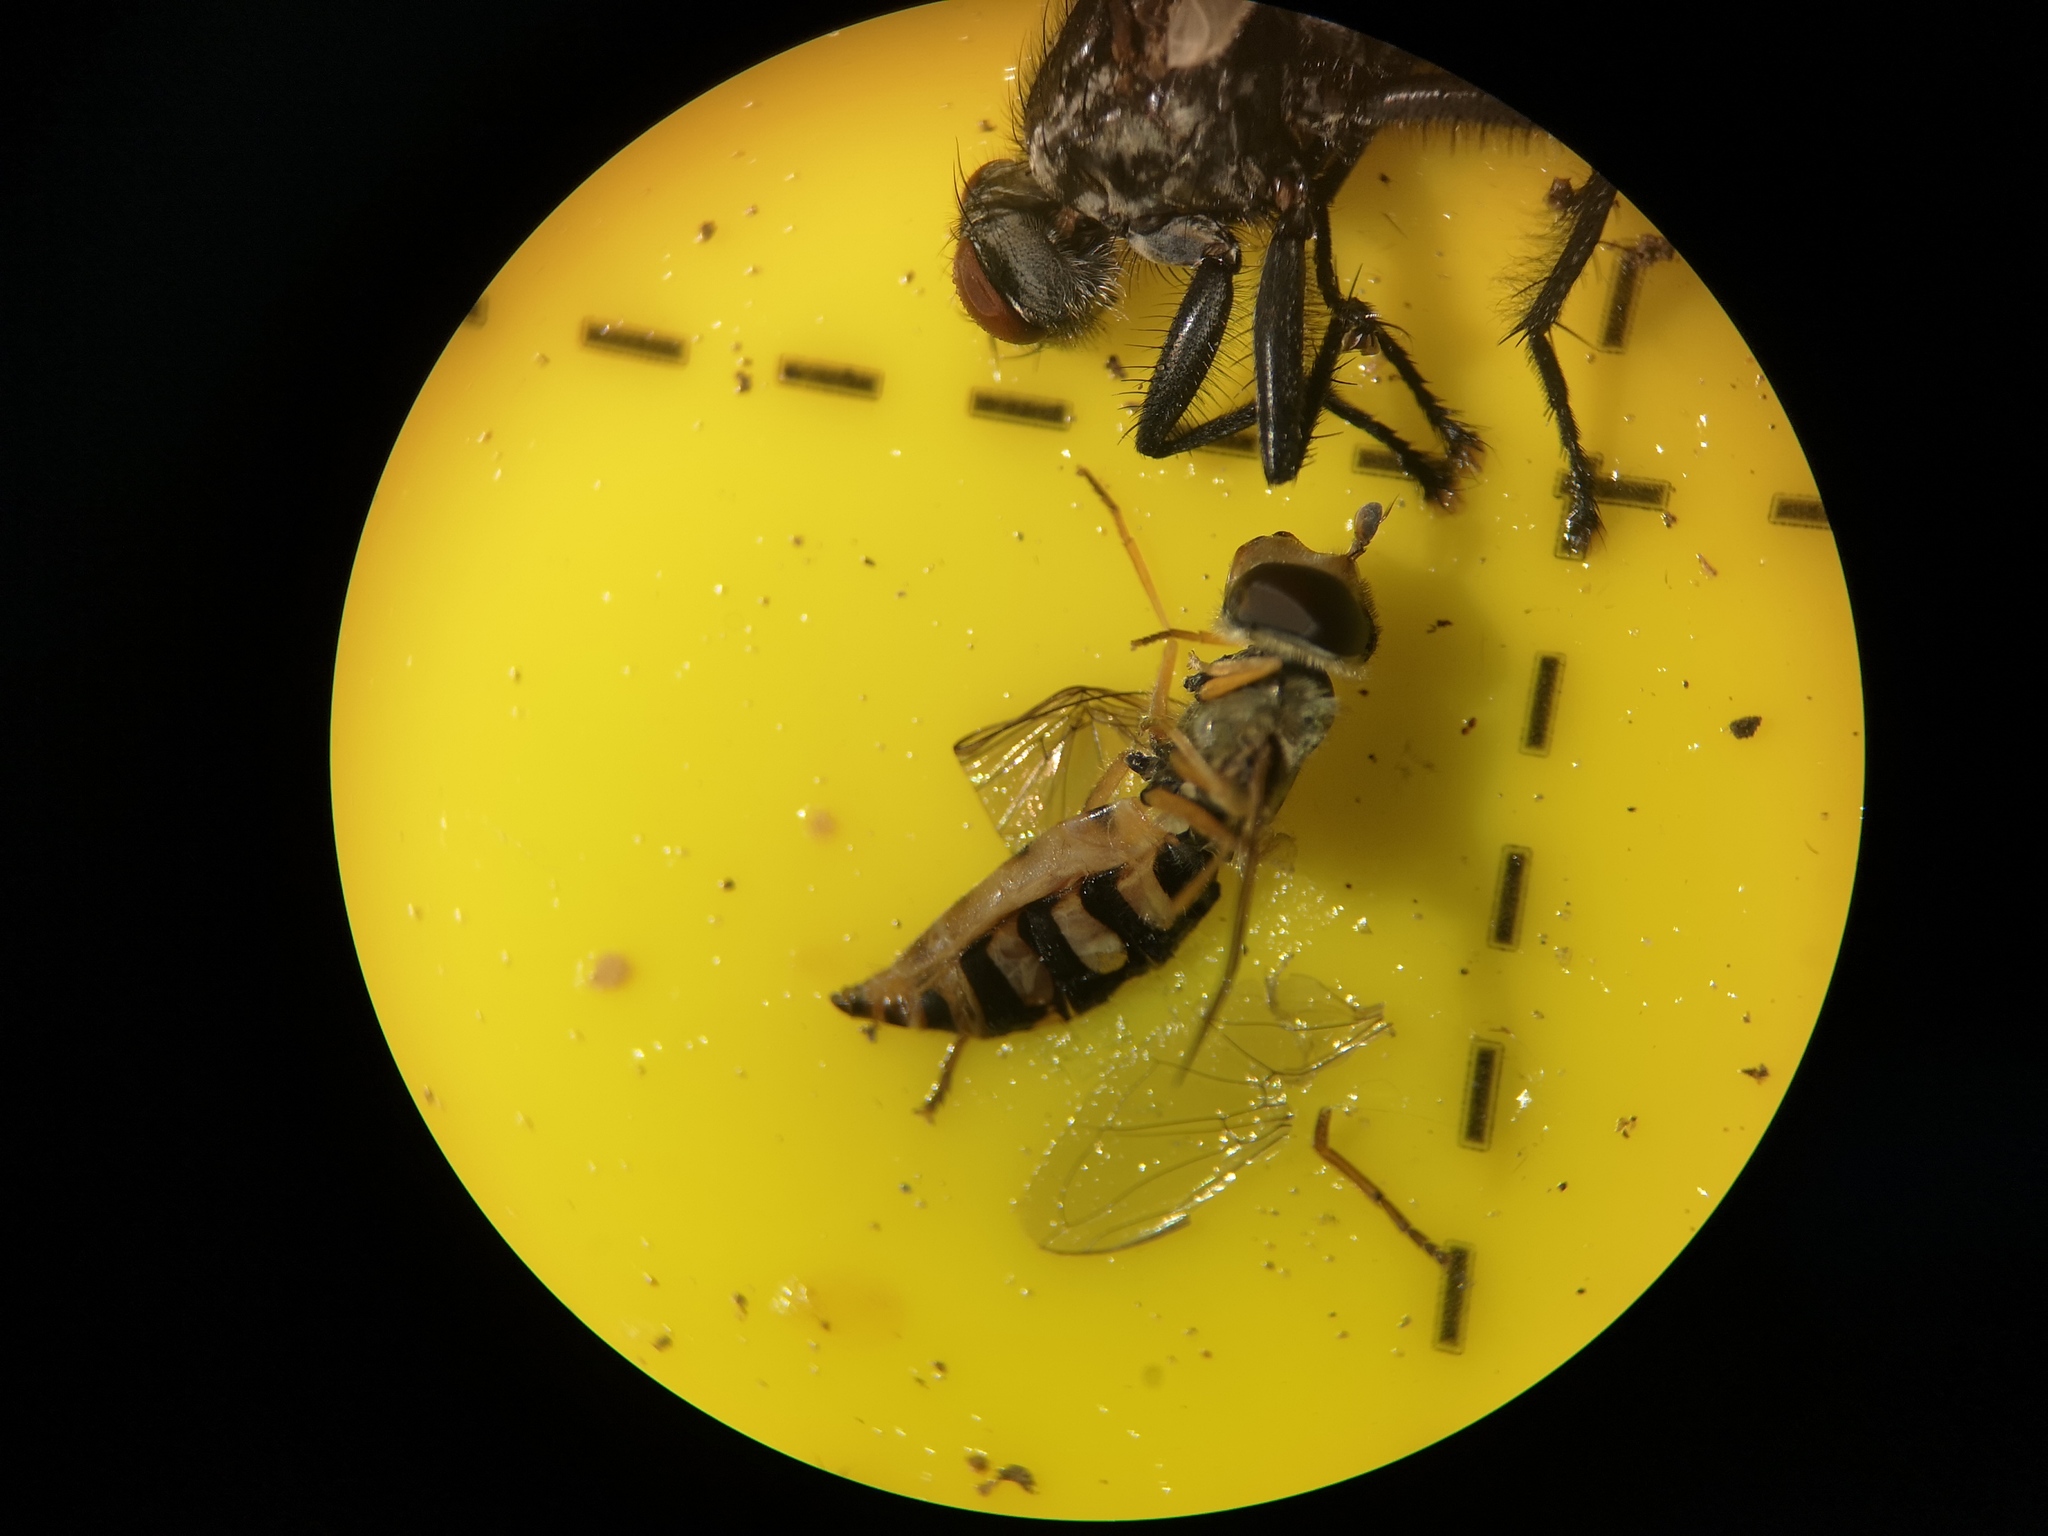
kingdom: Animalia
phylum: Arthropoda
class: Insecta
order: Diptera
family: Syrphidae
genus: Eupeodes
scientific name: Eupeodes corollae
